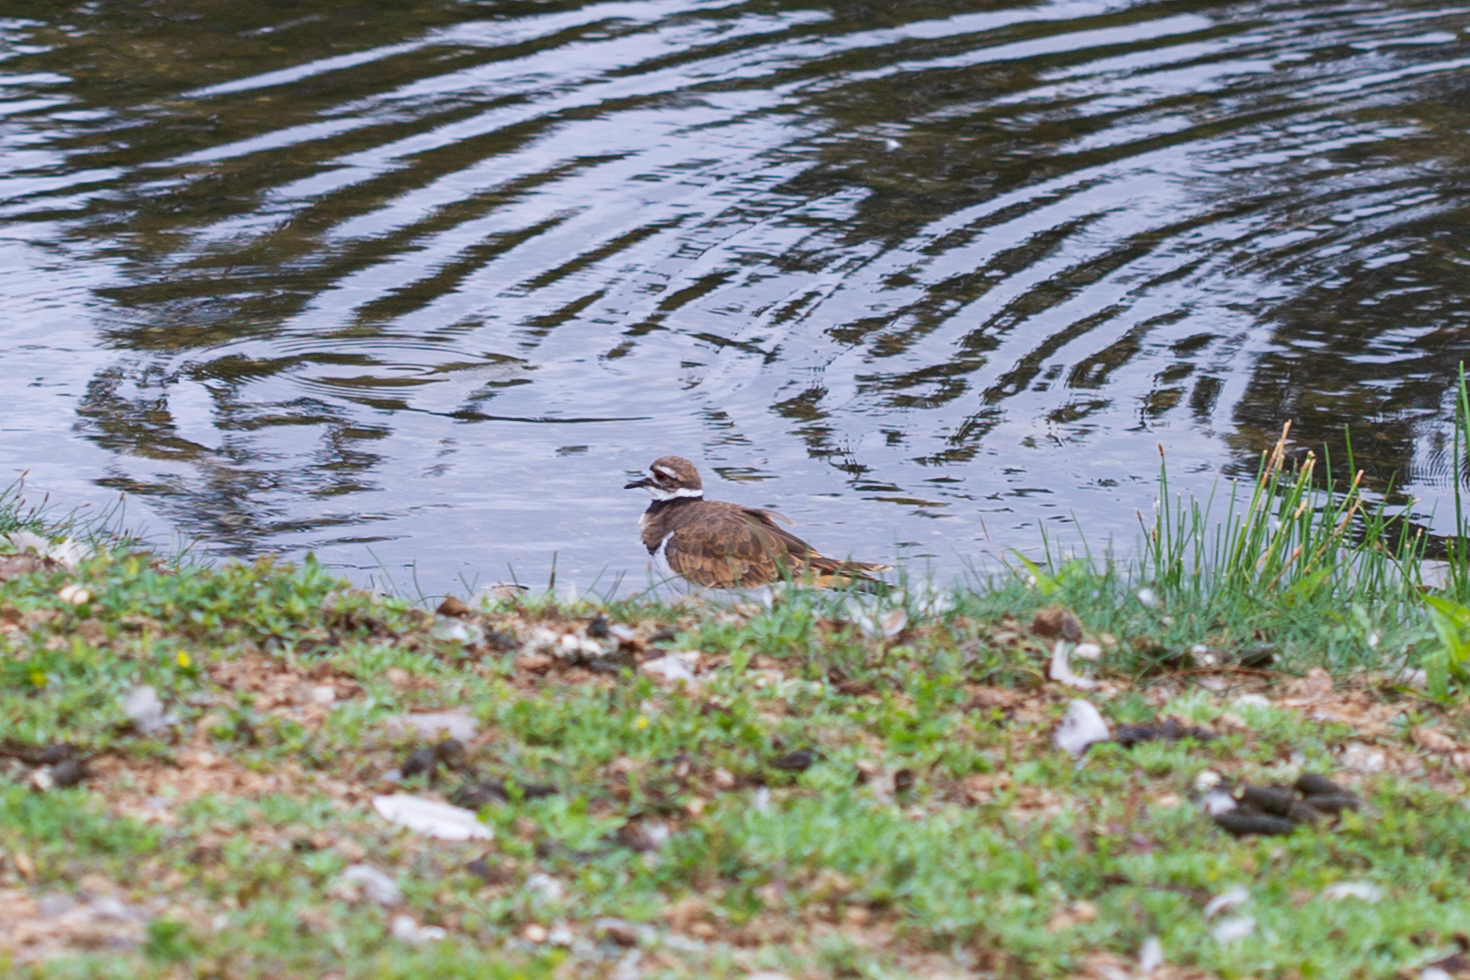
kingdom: Animalia
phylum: Chordata
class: Aves
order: Charadriiformes
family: Charadriidae
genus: Charadrius
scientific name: Charadrius vociferus
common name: Killdeer
